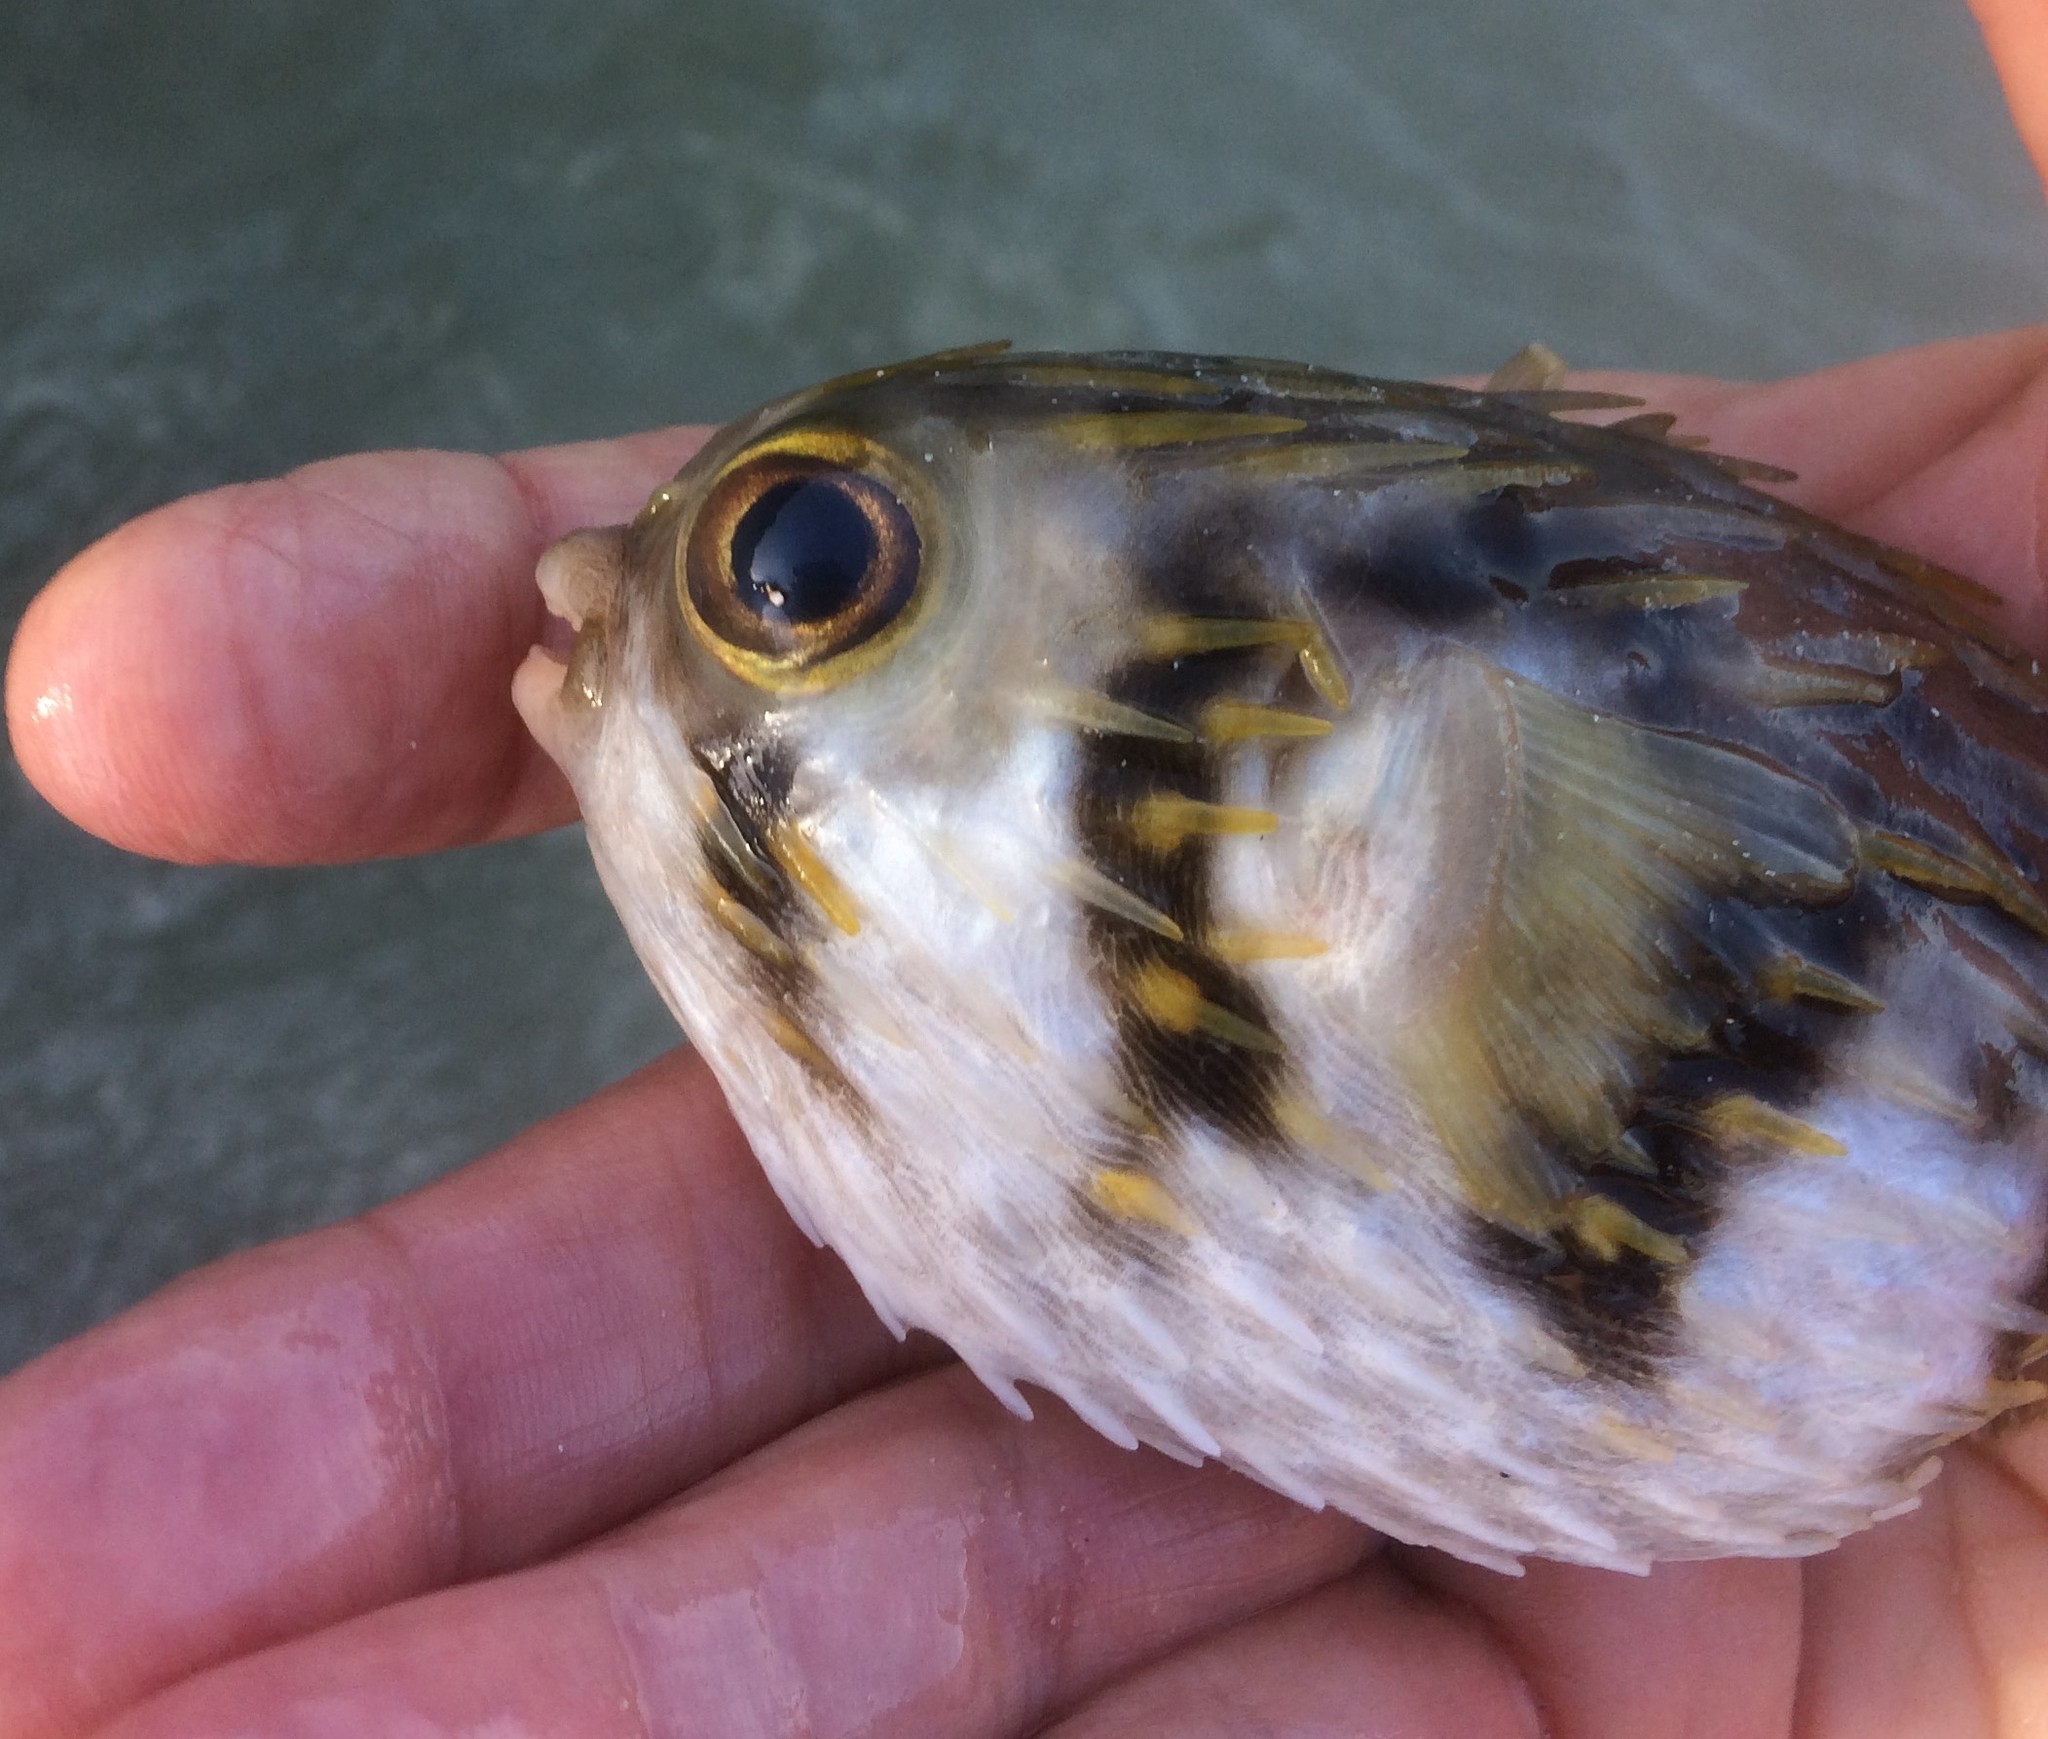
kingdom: Animalia
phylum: Chordata
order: Tetraodontiformes
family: Diodontidae
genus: Diodon
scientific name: Diodon nicthemerus
